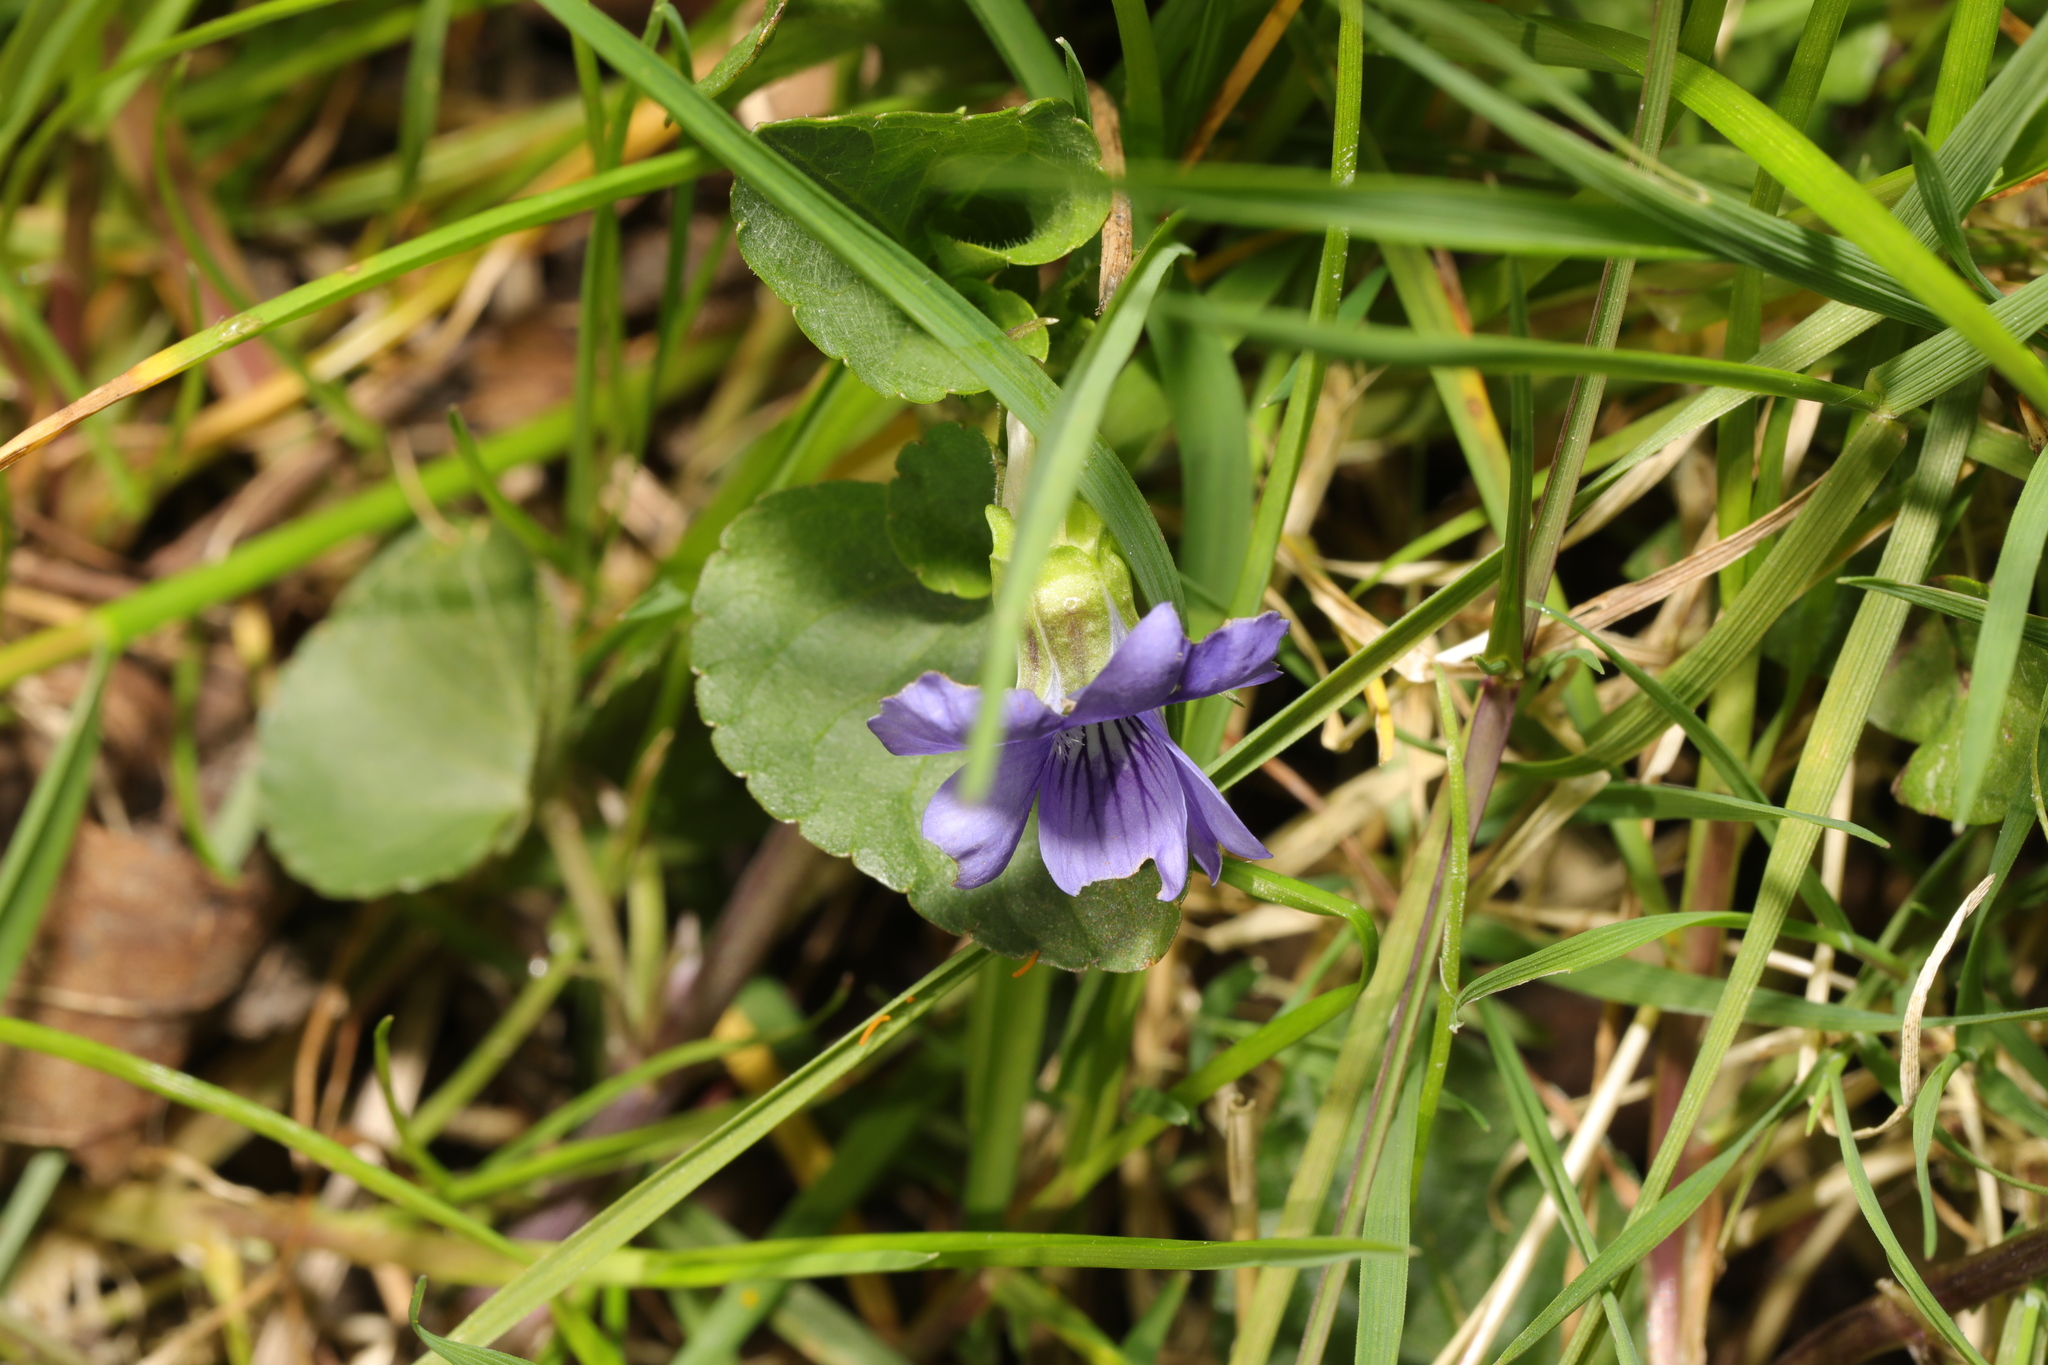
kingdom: Plantae
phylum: Tracheophyta
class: Magnoliopsida
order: Malpighiales
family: Violaceae
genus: Viola
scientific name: Viola riviniana
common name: Common dog-violet
